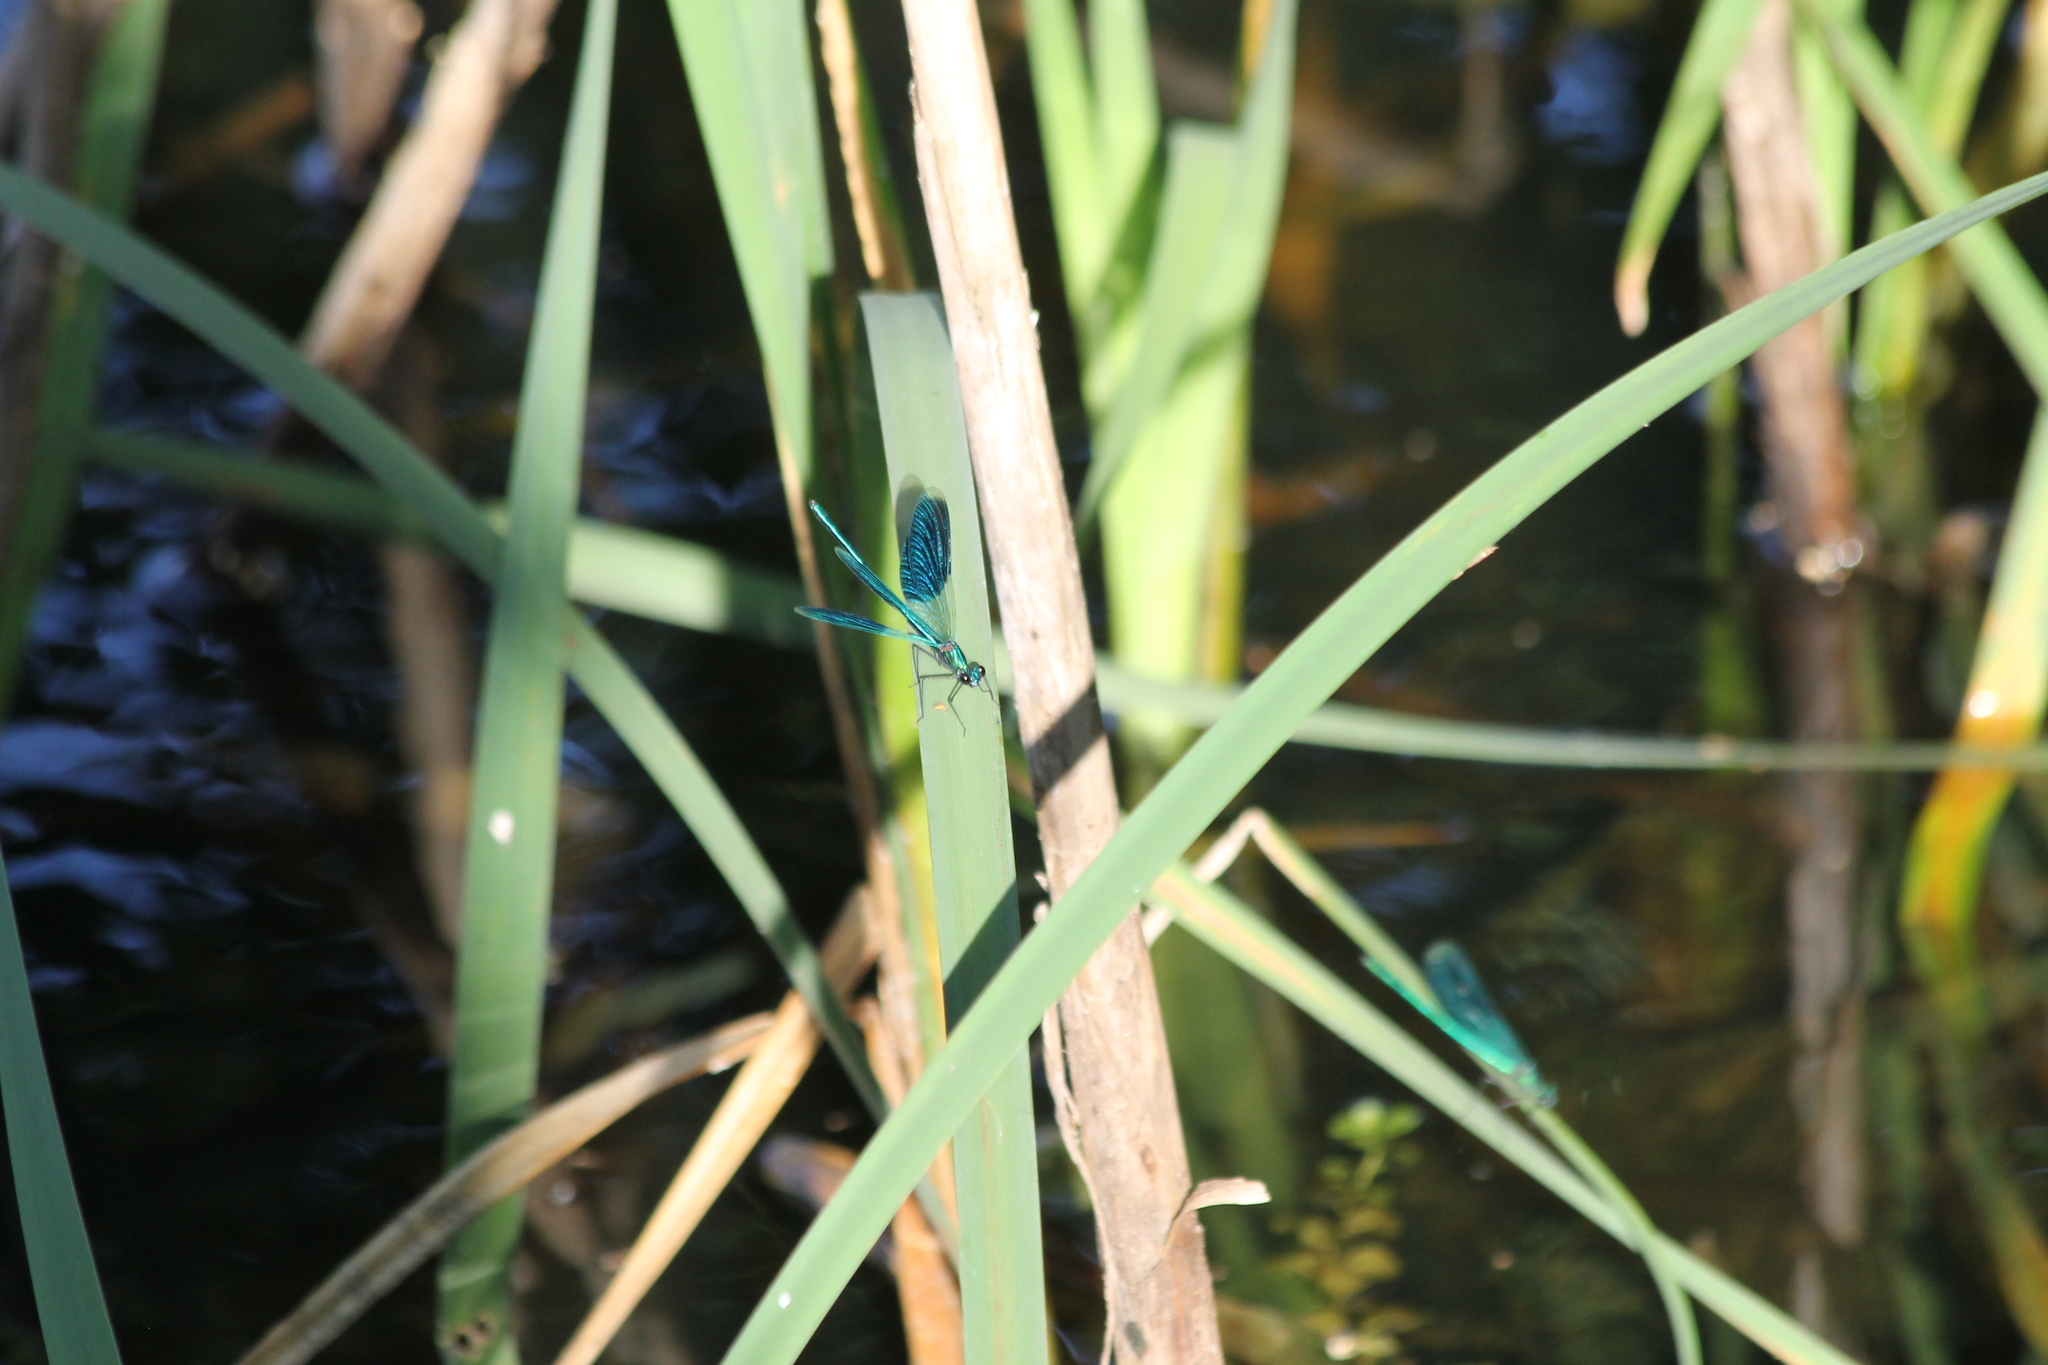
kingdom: Animalia
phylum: Arthropoda
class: Insecta
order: Odonata
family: Calopterygidae
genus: Calopteryx
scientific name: Calopteryx splendens
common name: Banded demoiselle
